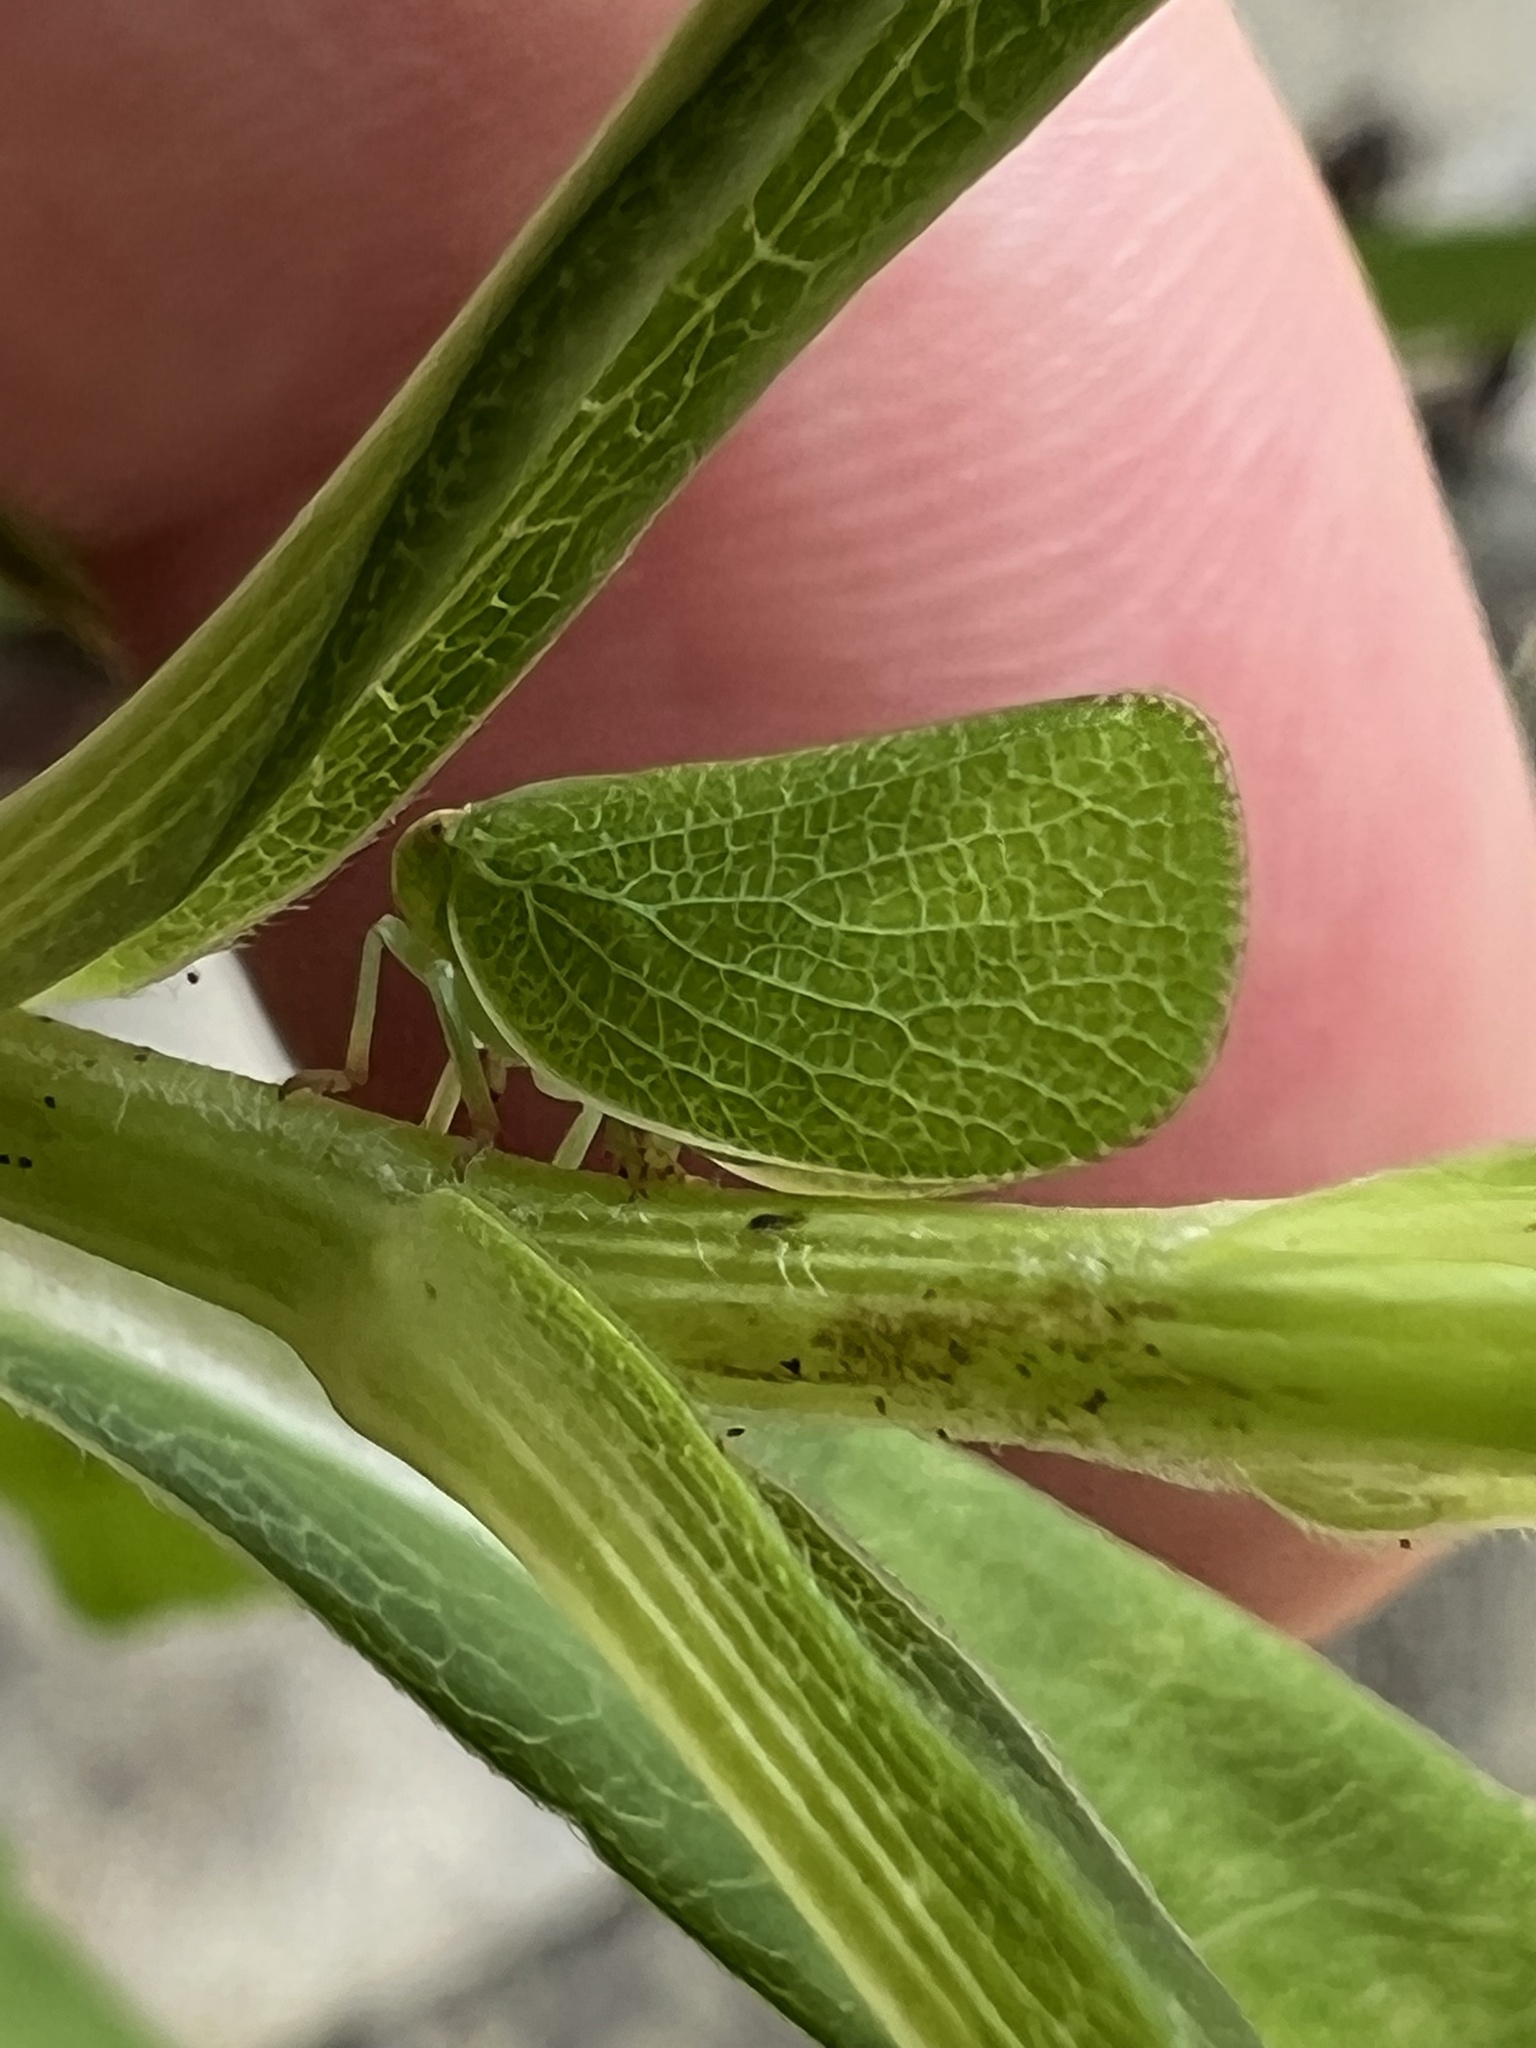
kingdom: Animalia
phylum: Arthropoda
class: Insecta
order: Hemiptera
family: Acanaloniidae
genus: Acanalonia
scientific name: Acanalonia conica
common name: Green cone-headed planthopper
